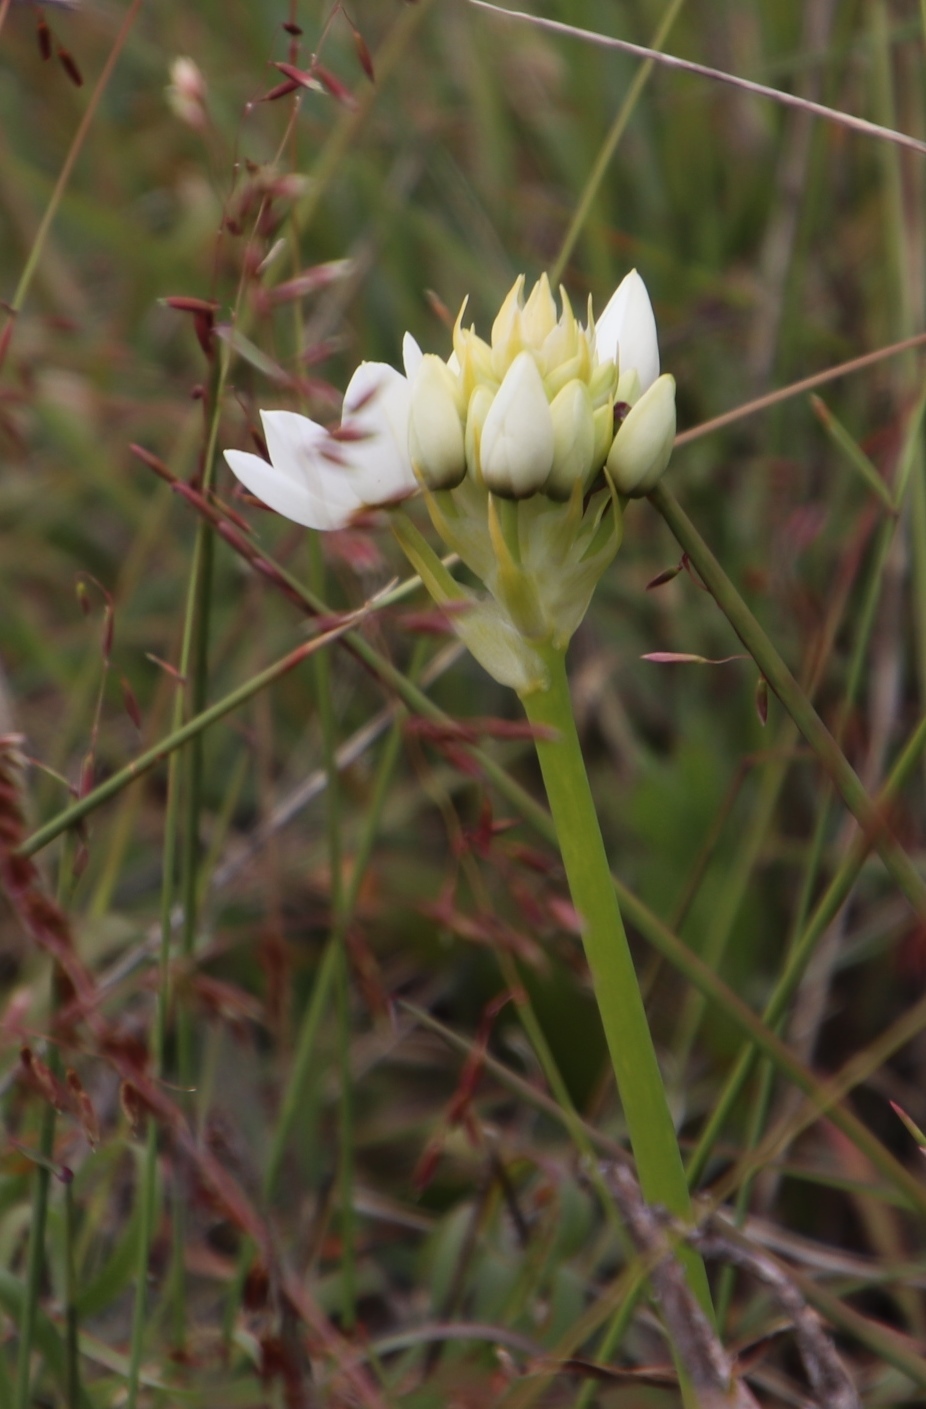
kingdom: Plantae
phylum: Tracheophyta
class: Liliopsida
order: Asparagales
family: Asparagaceae
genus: Ornithogalum
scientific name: Ornithogalum thyrsoides
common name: Chincherinchee
